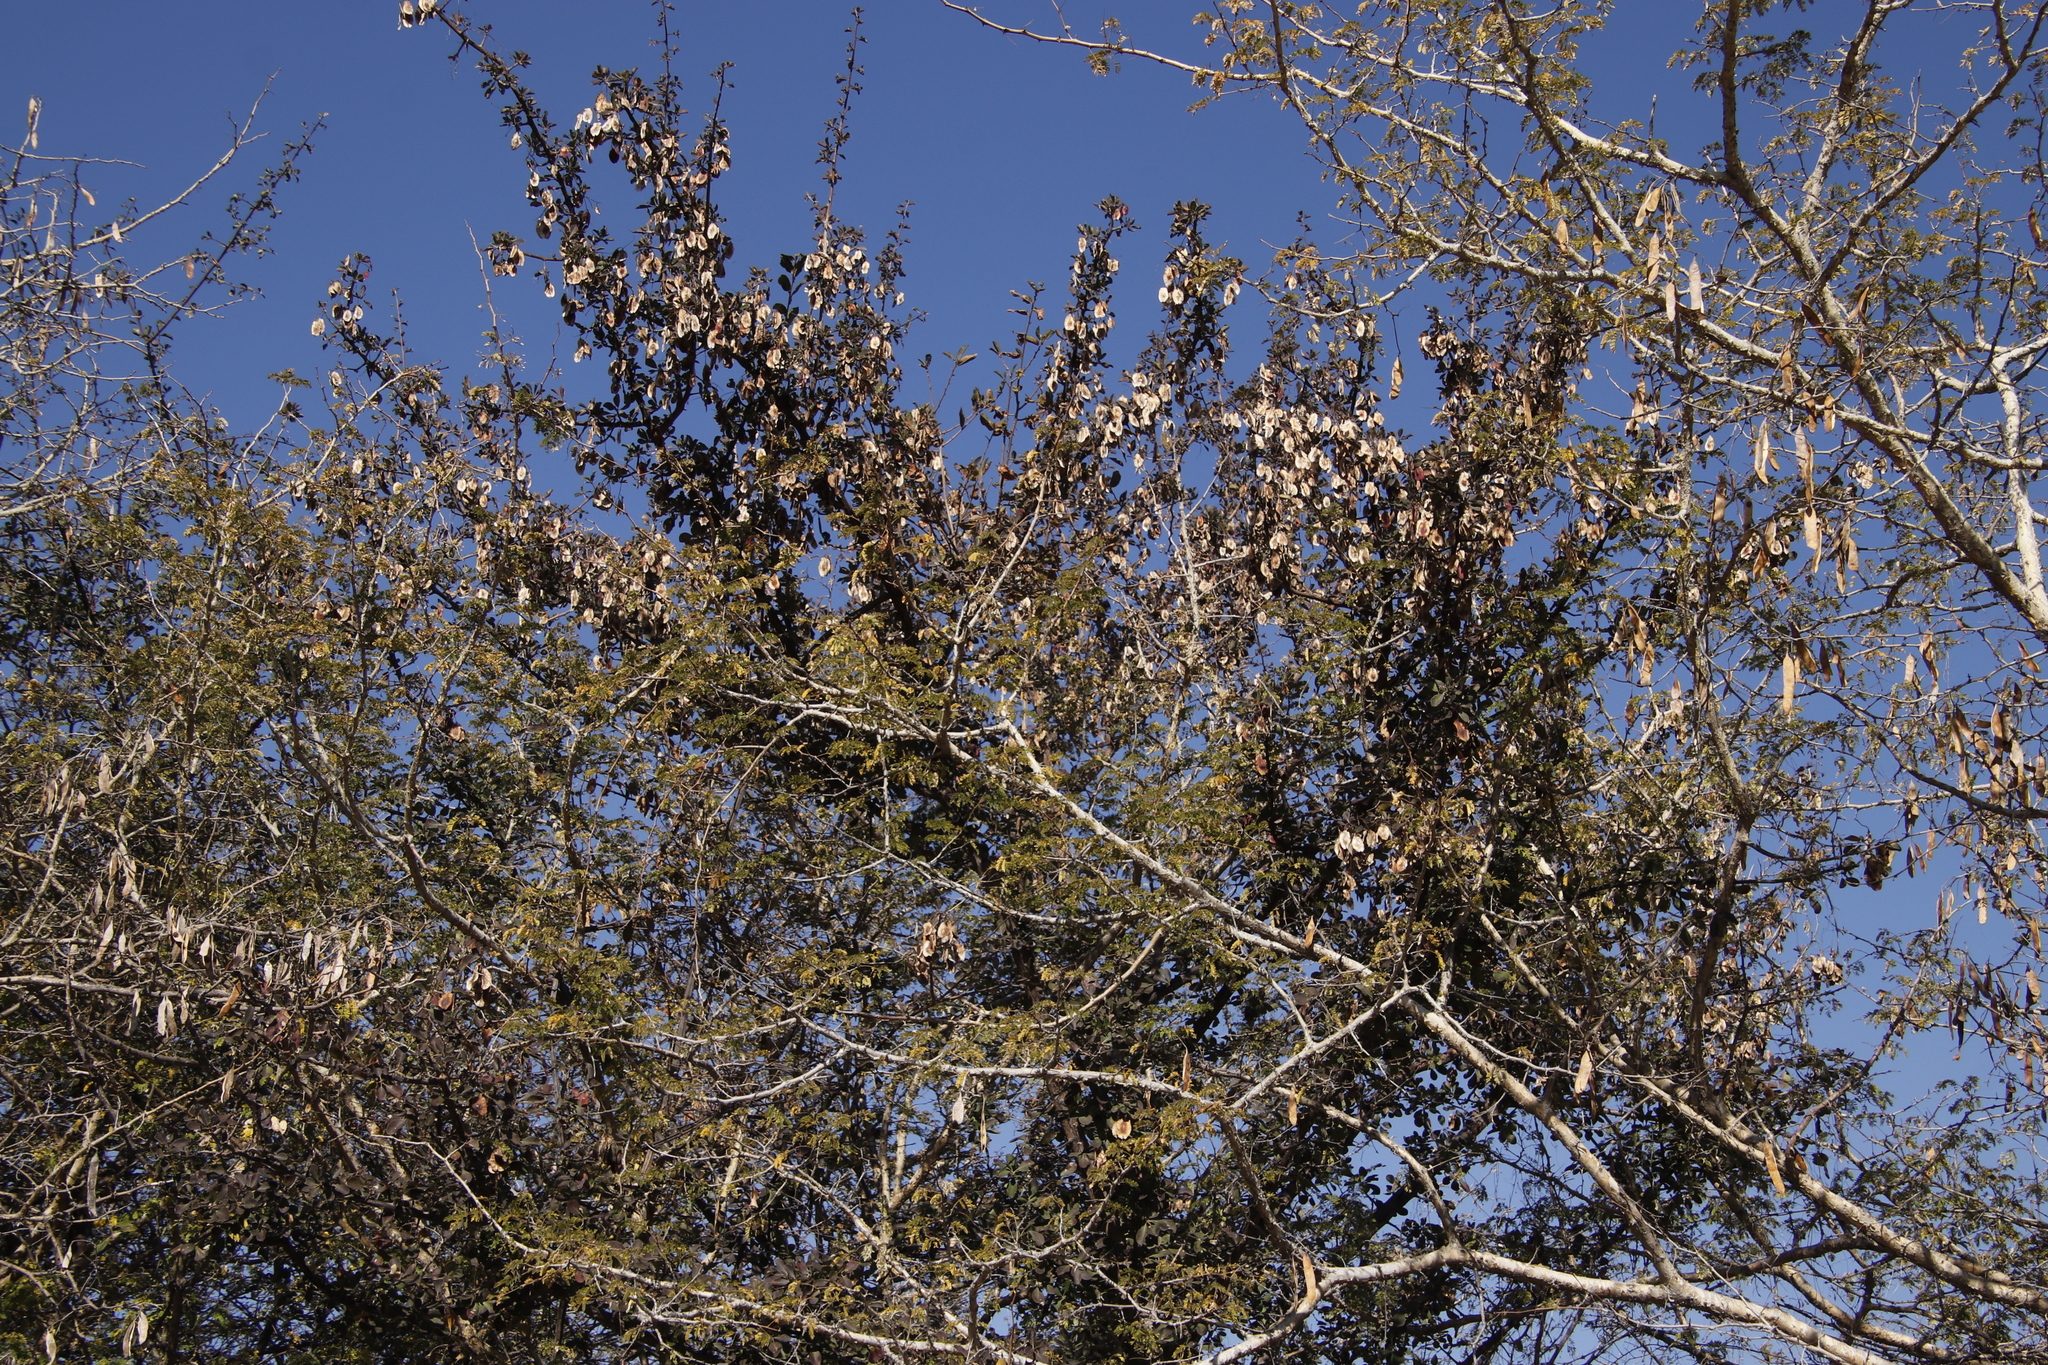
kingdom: Plantae
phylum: Tracheophyta
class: Magnoliopsida
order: Myrtales
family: Combretaceae
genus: Terminalia
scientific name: Terminalia prunioides
